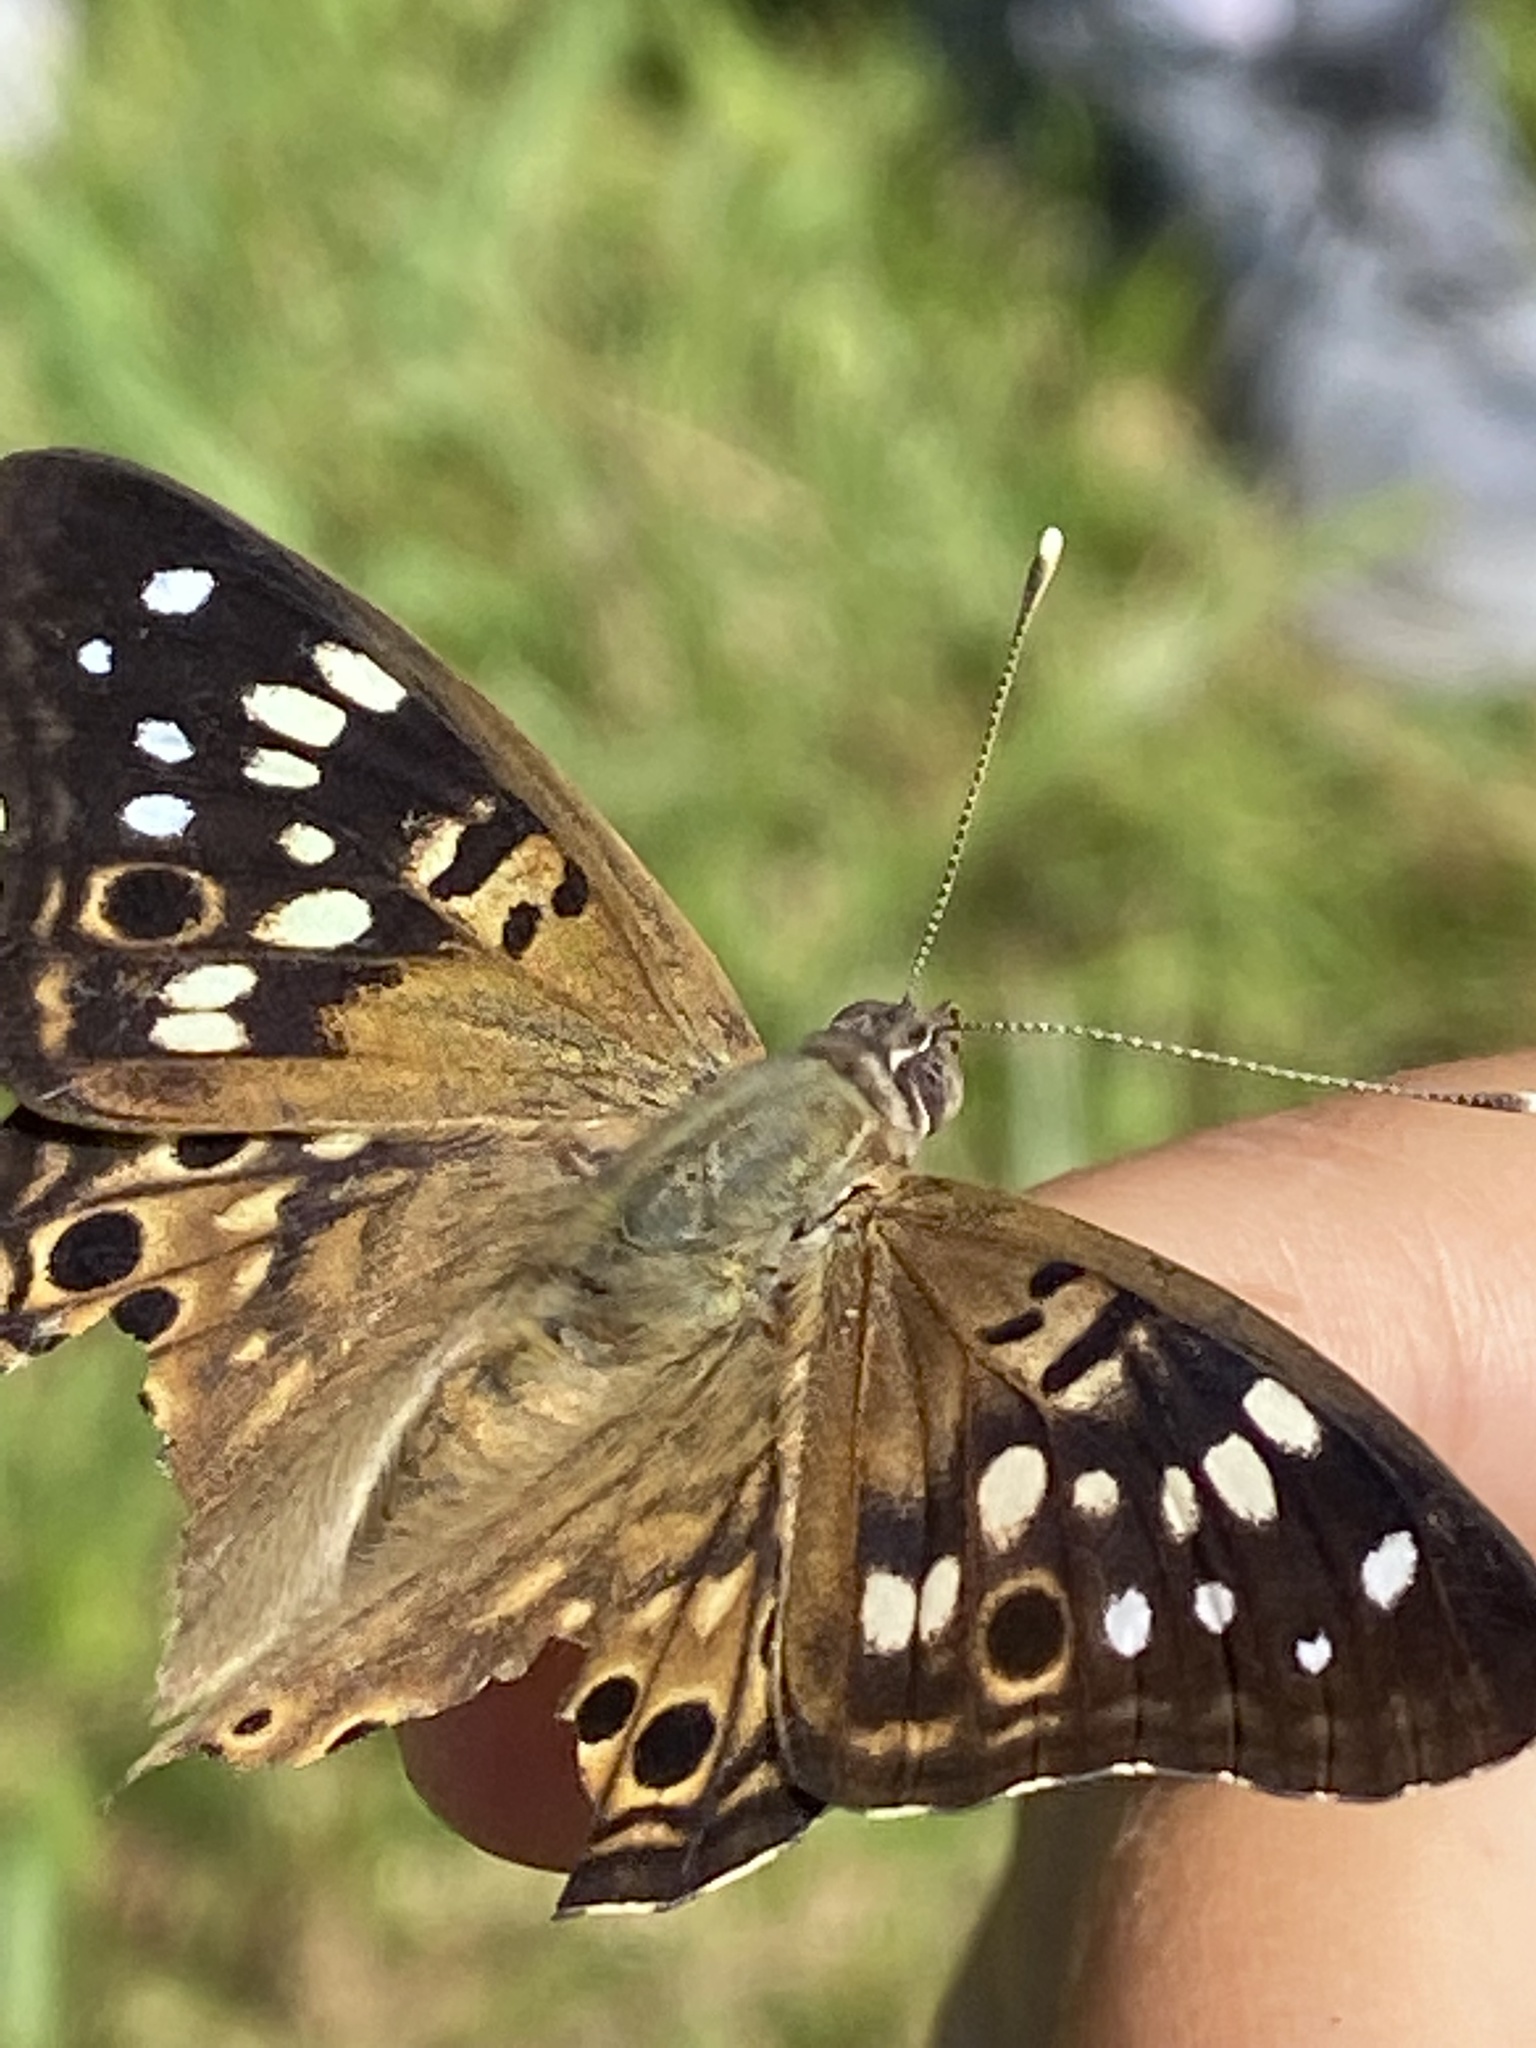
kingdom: Animalia
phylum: Arthropoda
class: Insecta
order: Lepidoptera
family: Nymphalidae
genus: Asterocampa
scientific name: Asterocampa celtis
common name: Hackberry emperor
